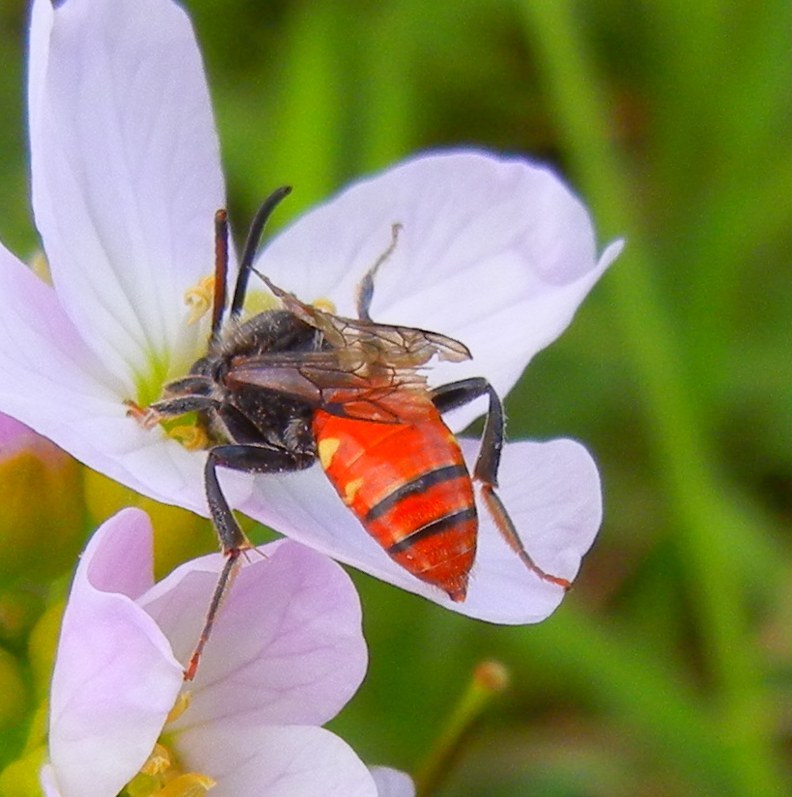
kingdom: Animalia
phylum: Arthropoda
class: Insecta
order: Hymenoptera
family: Apidae
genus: Nomada
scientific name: Nomada fabriciana
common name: Fabricius' nomad bee
